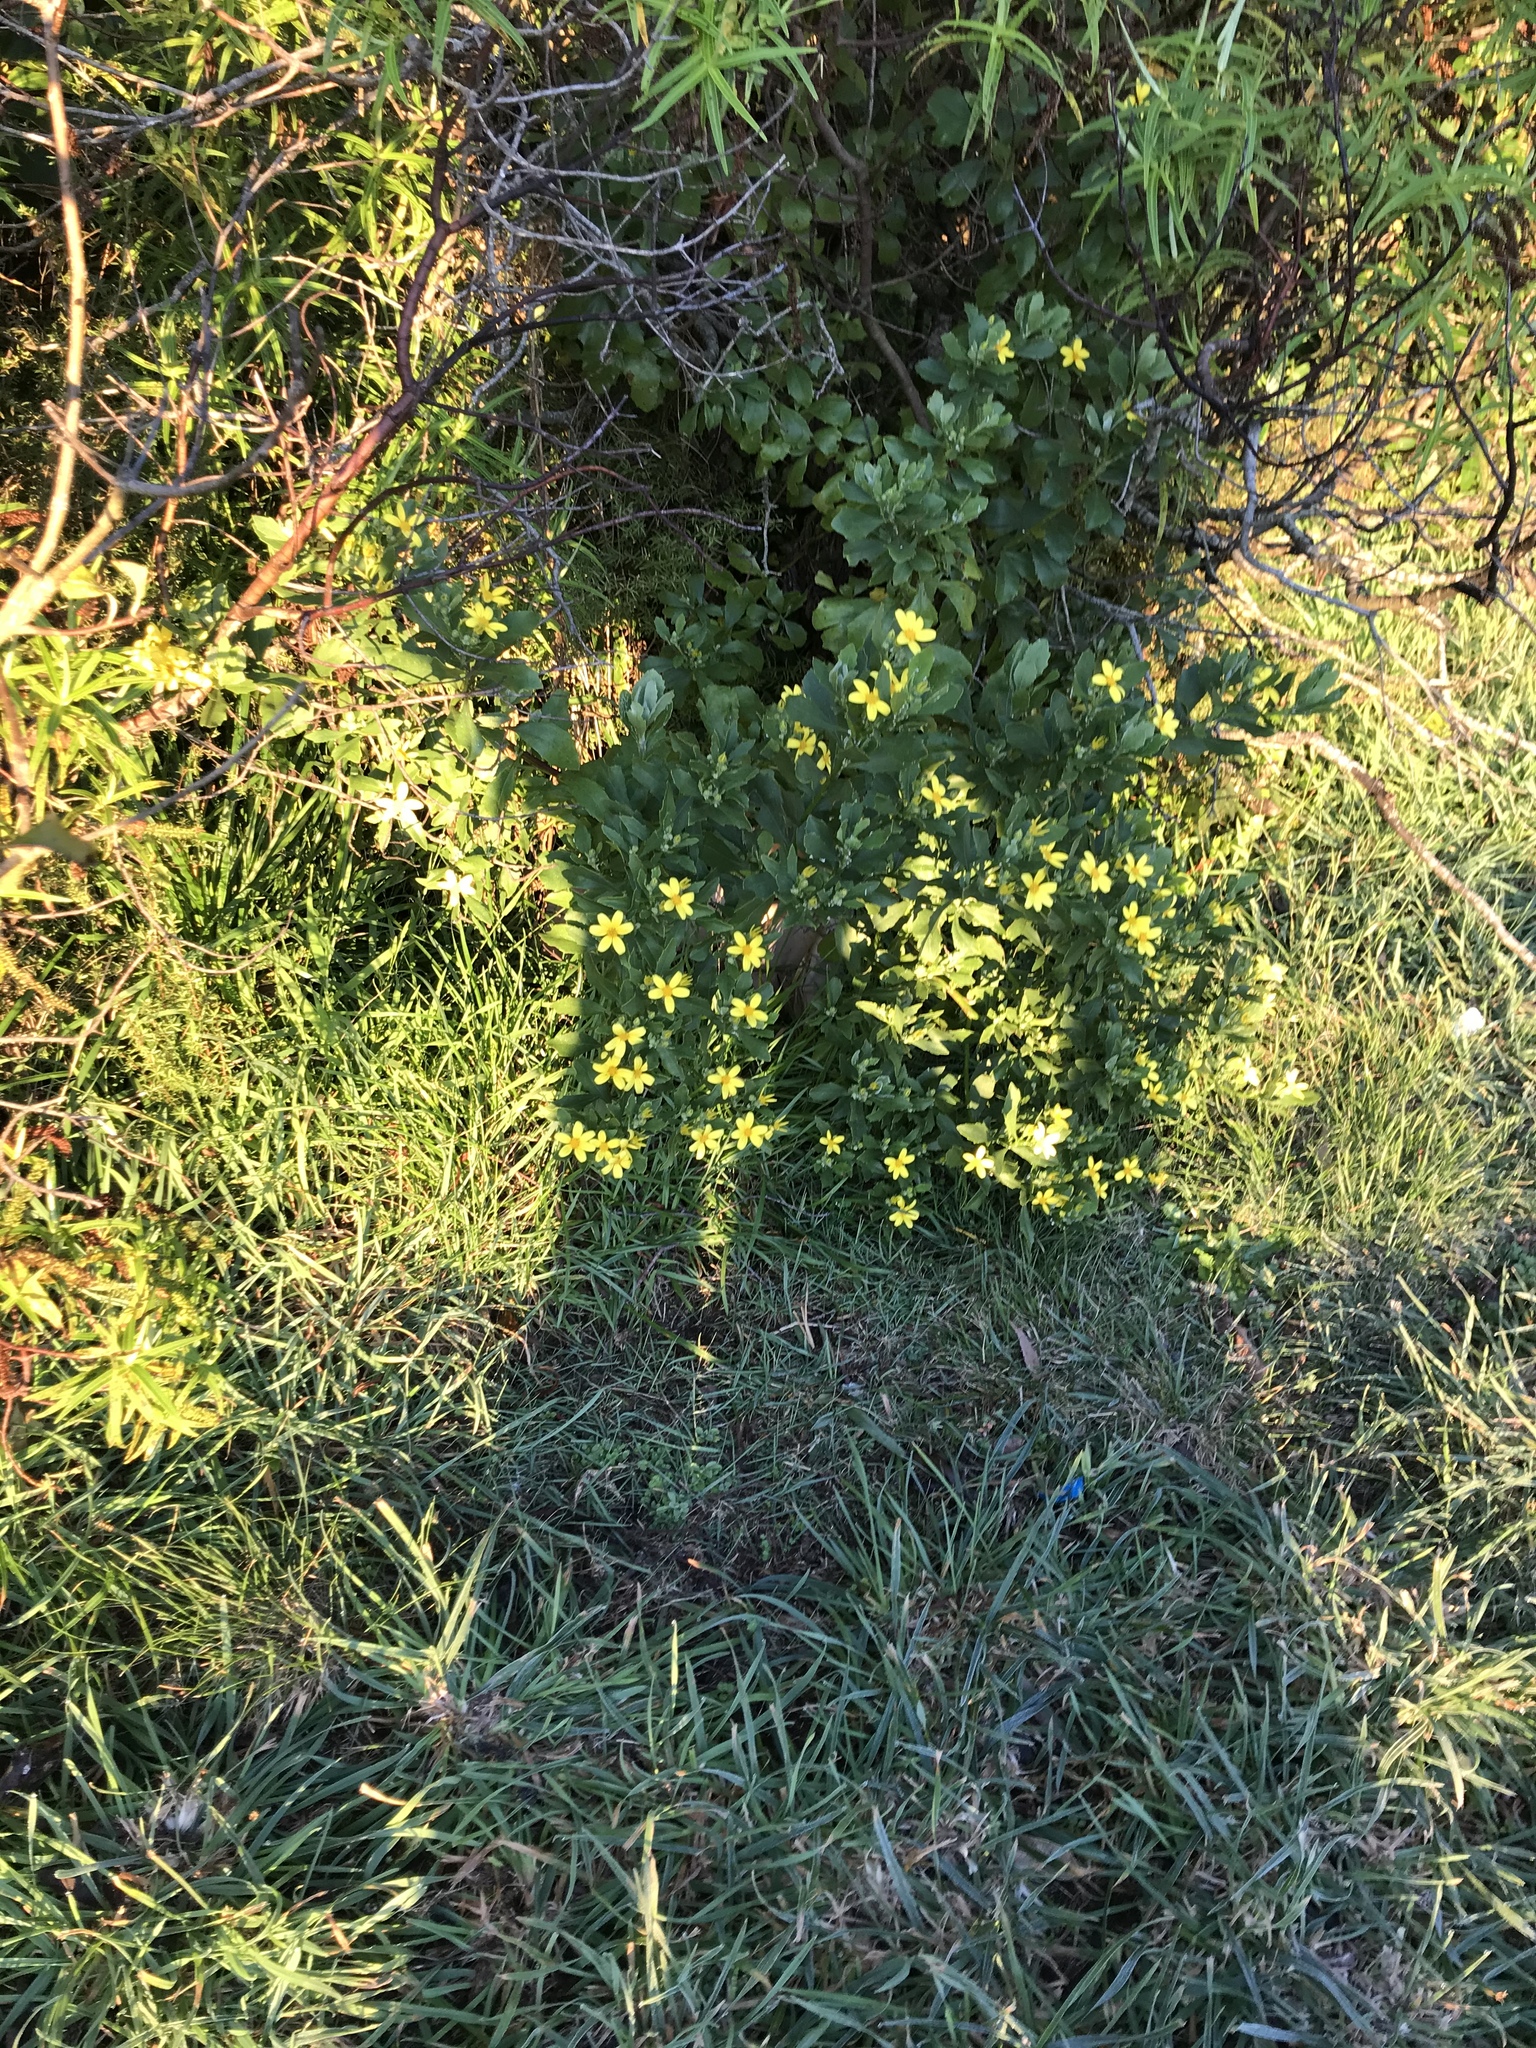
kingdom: Plantae
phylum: Tracheophyta
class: Magnoliopsida
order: Asterales
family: Asteraceae
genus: Osteospermum
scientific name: Osteospermum moniliferum
